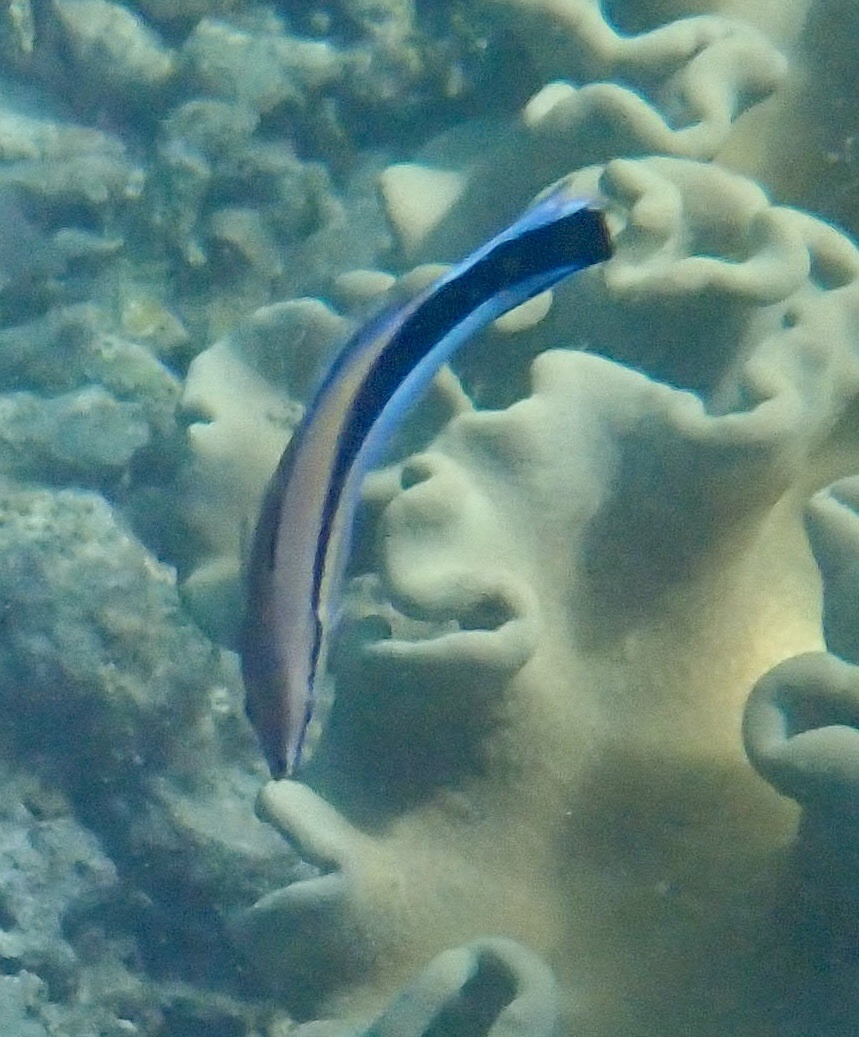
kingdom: Animalia
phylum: Chordata
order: Perciformes
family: Labridae
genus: Labroides
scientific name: Labroides dimidiatus
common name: Blue diesel wrasse
